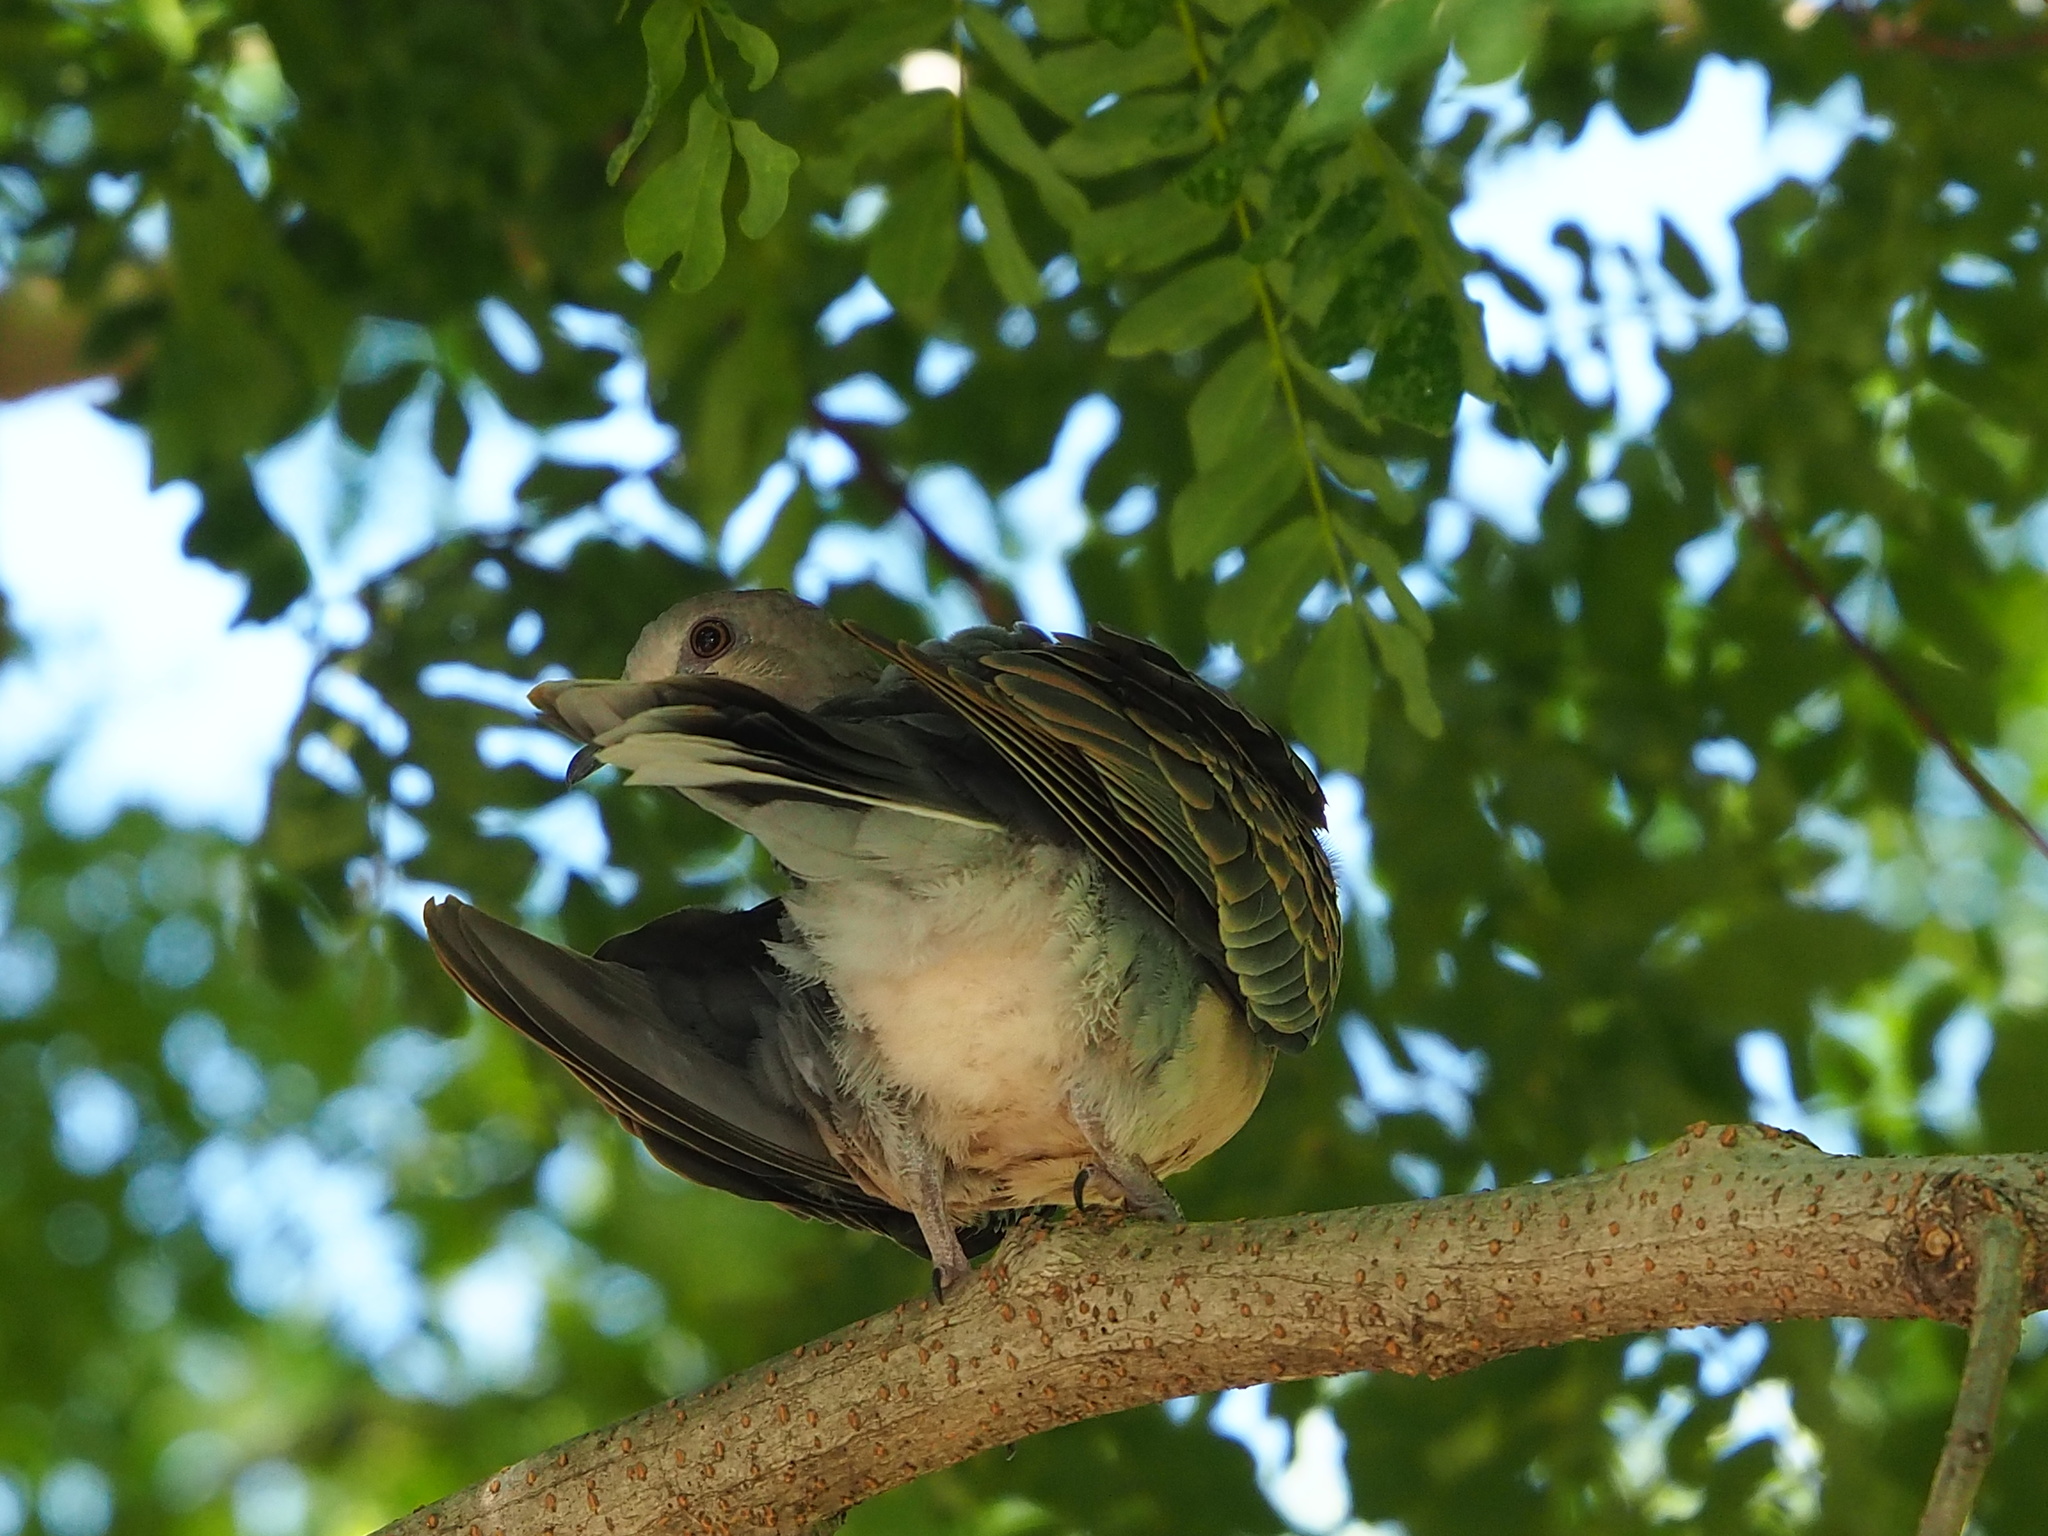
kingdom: Animalia
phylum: Chordata
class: Aves
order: Columbiformes
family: Columbidae
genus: Streptopelia
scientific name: Streptopelia orientalis
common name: Oriental turtle dove
